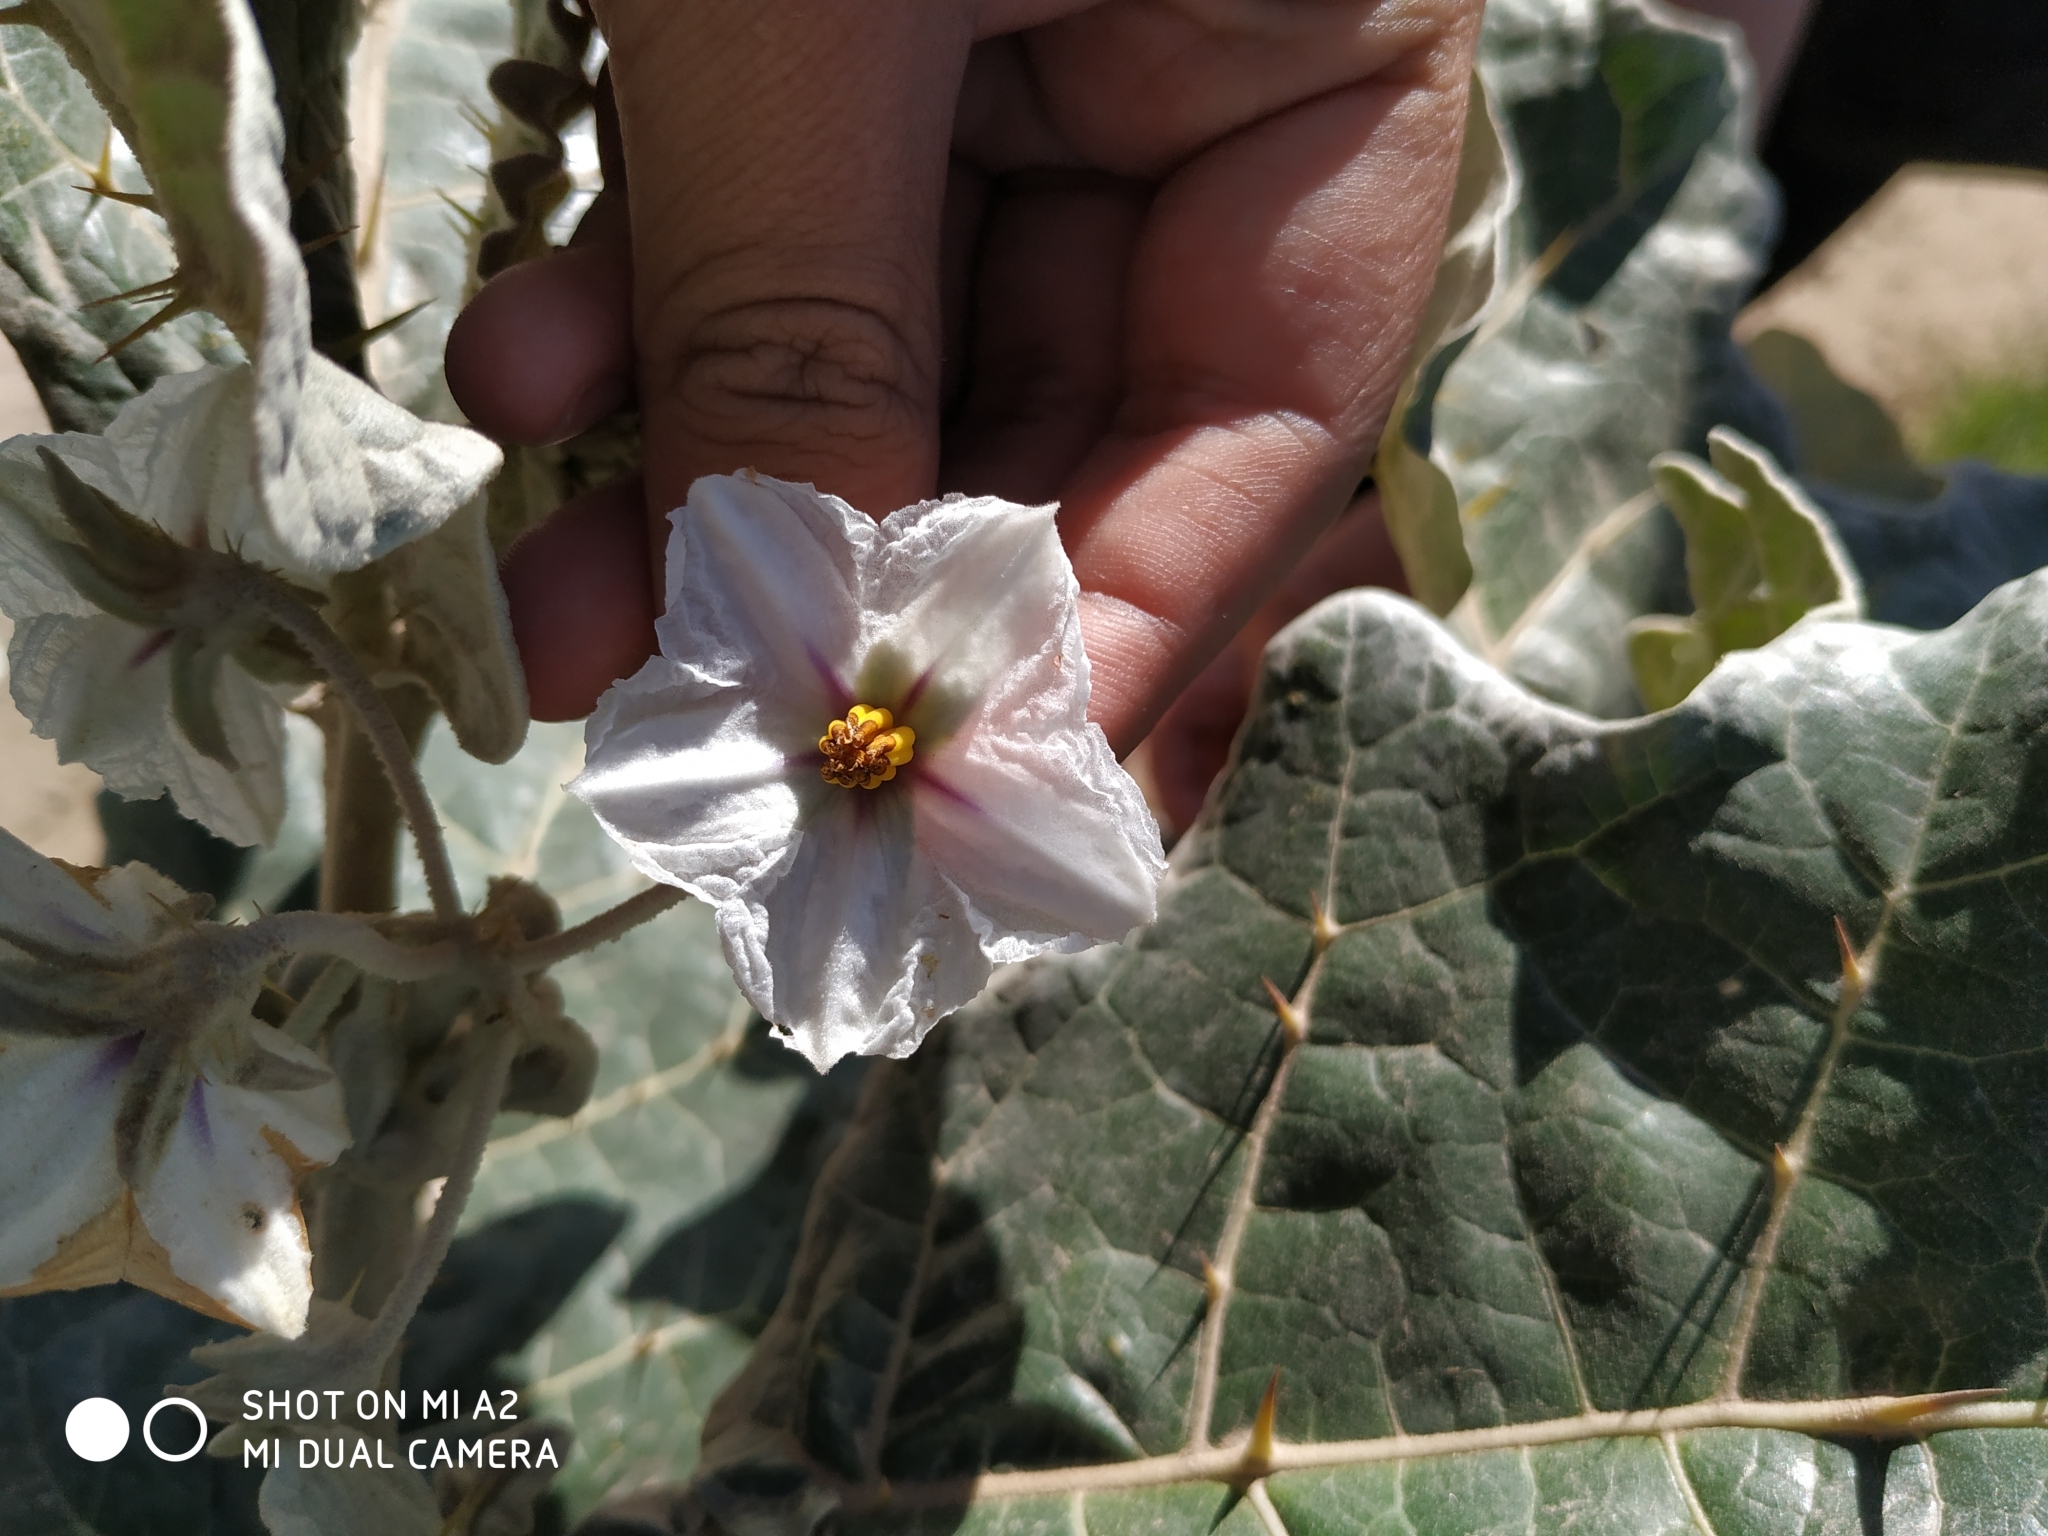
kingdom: Plantae
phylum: Tracheophyta
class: Magnoliopsida
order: Solanales
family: Solanaceae
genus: Solanum
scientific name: Solanum marginatum
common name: Purple african nightshade
